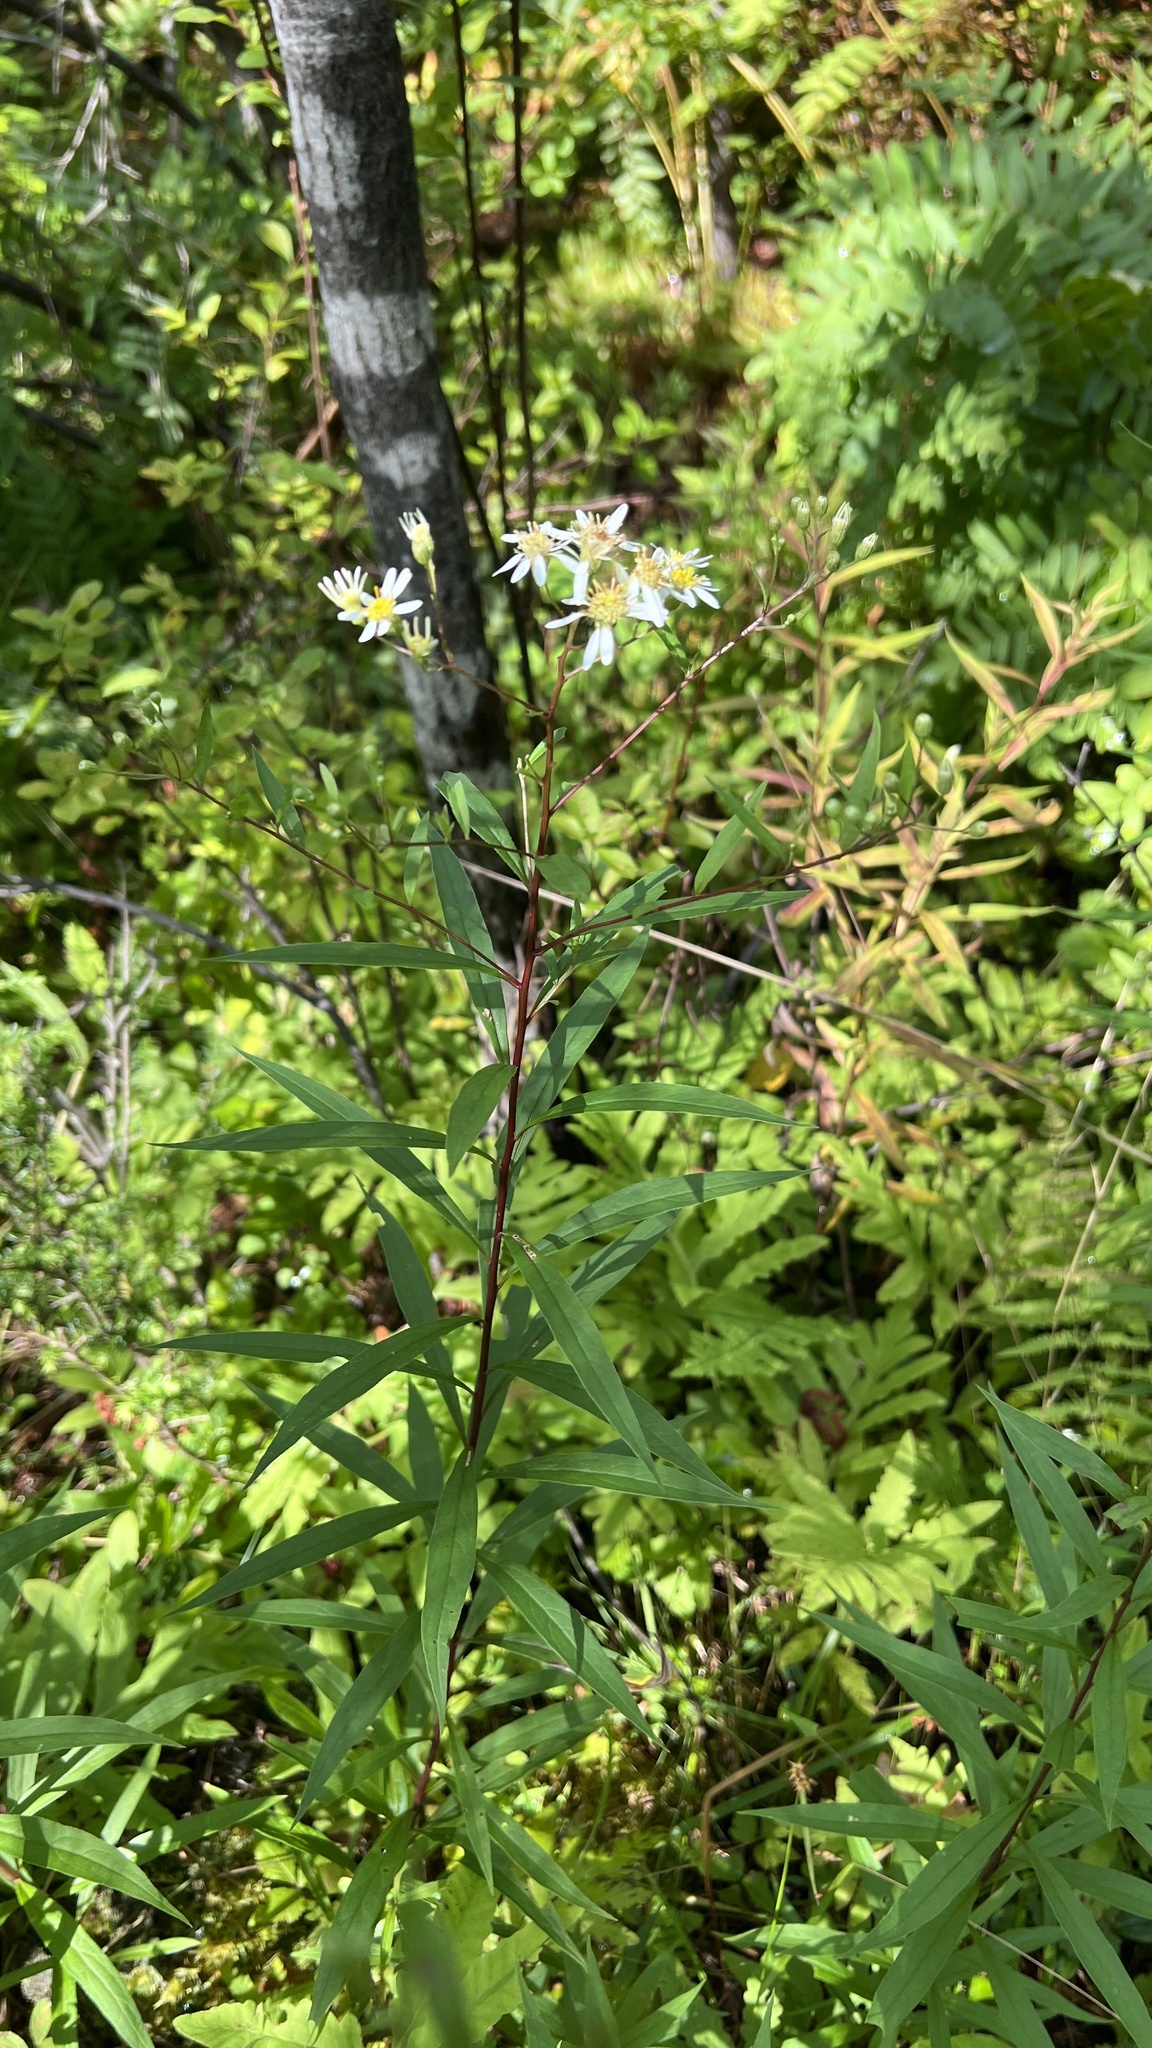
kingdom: Plantae
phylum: Tracheophyta
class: Magnoliopsida
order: Asterales
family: Asteraceae
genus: Doellingeria
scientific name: Doellingeria umbellata
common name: Flat-top white aster
